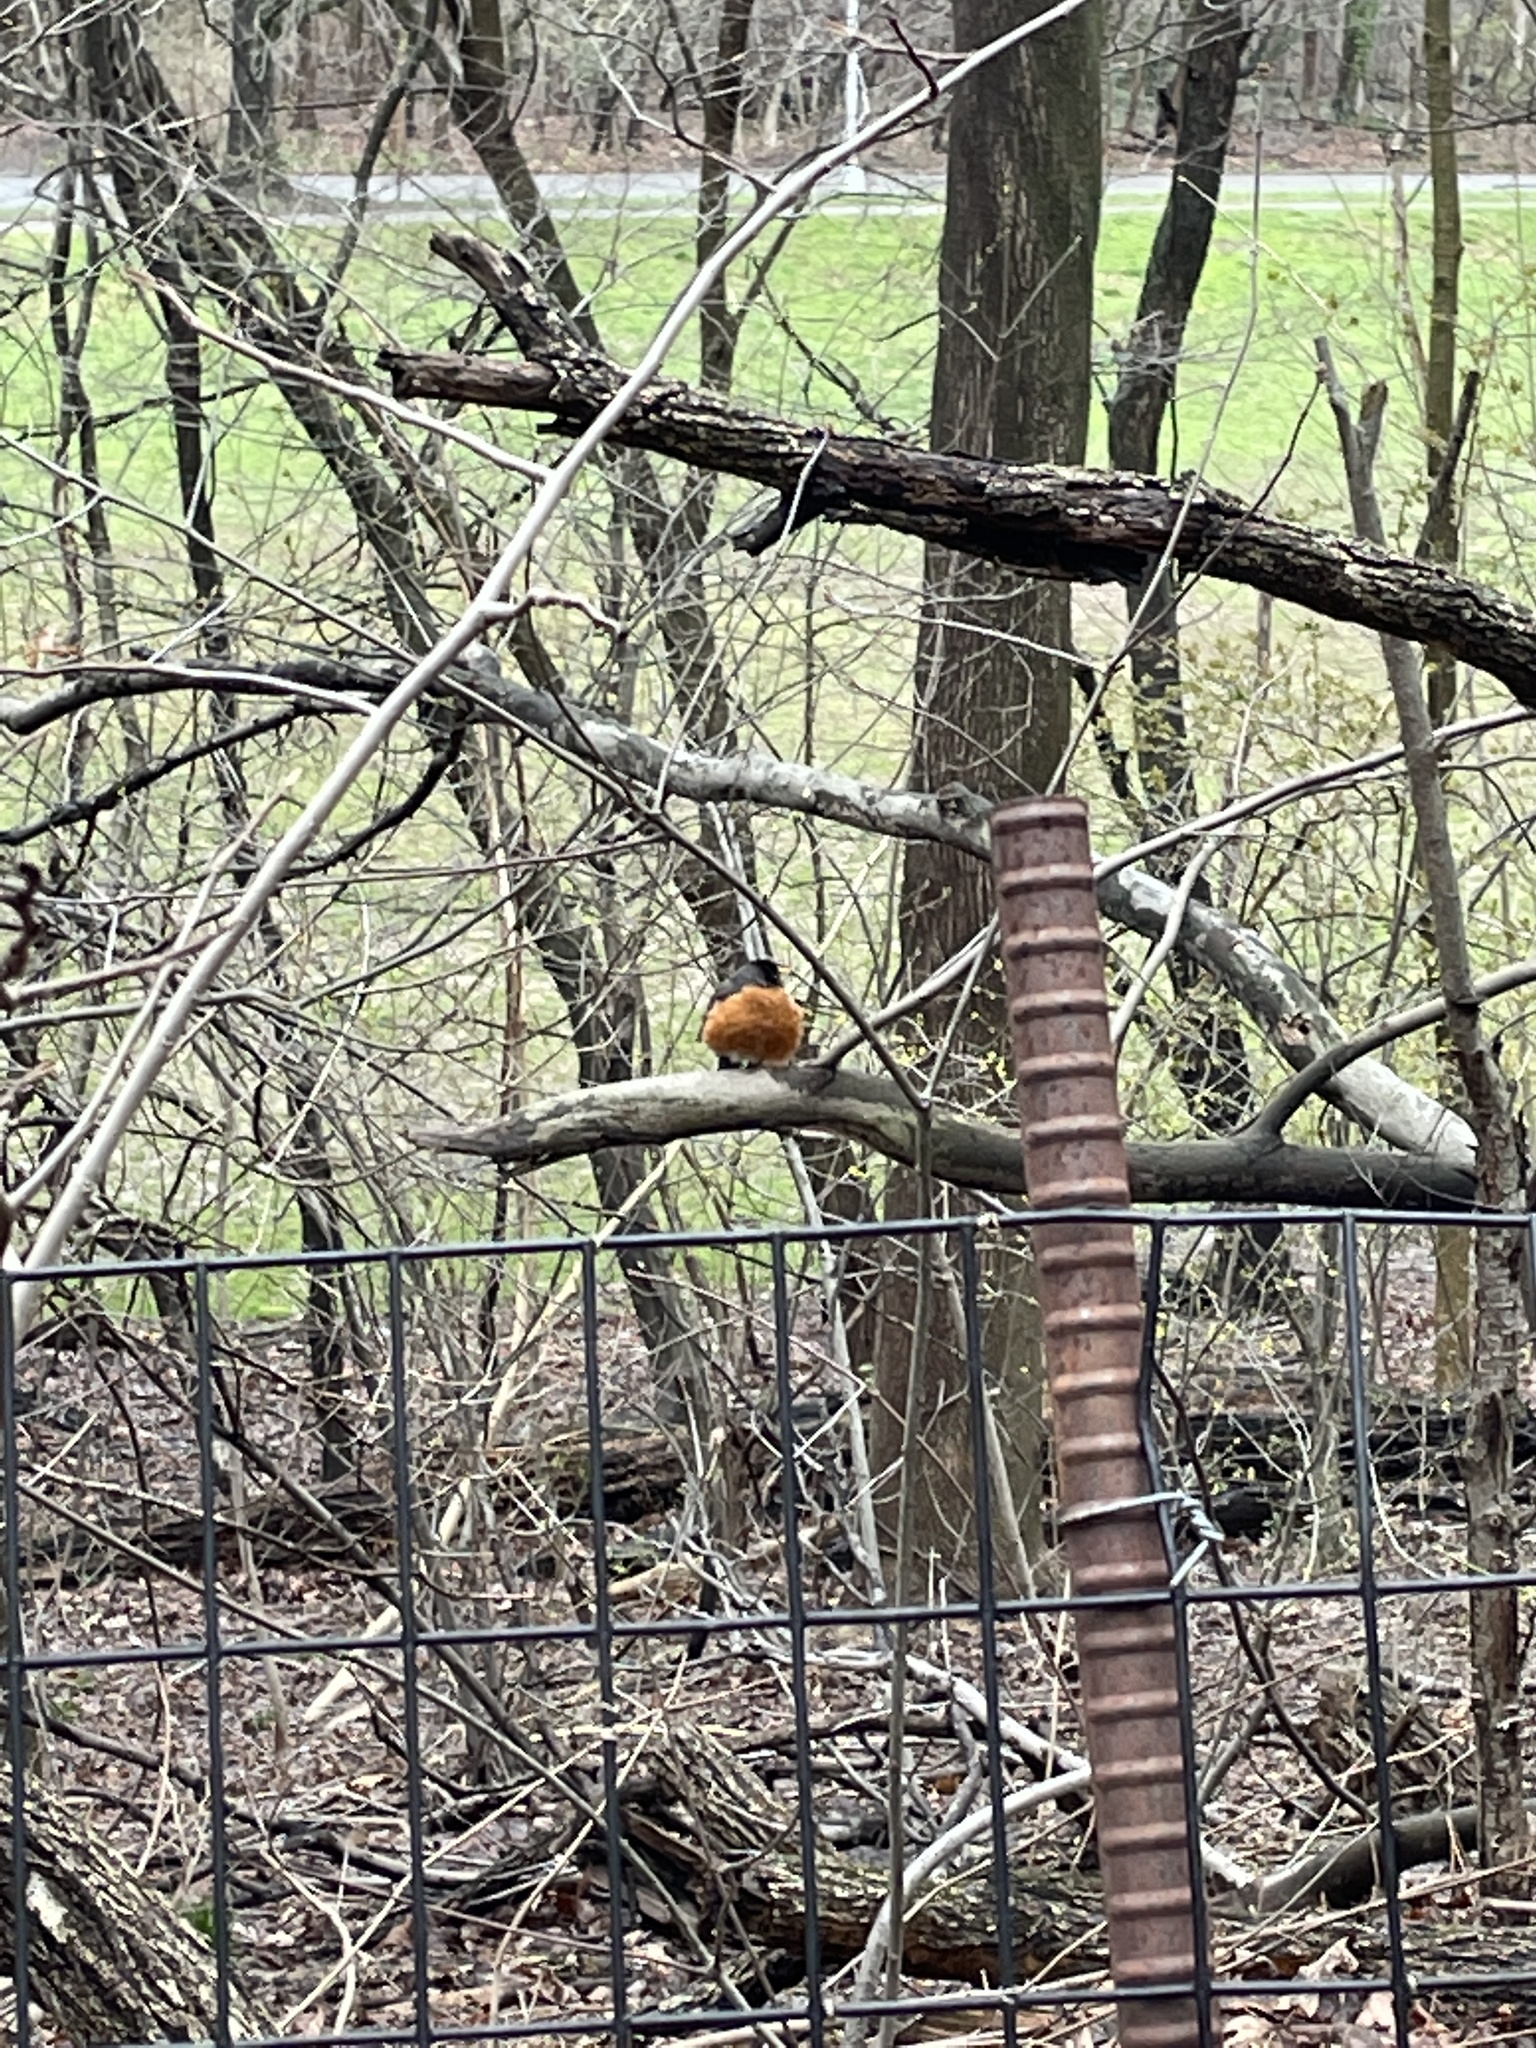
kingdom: Animalia
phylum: Chordata
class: Aves
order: Passeriformes
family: Turdidae
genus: Turdus
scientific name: Turdus migratorius
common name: American robin
